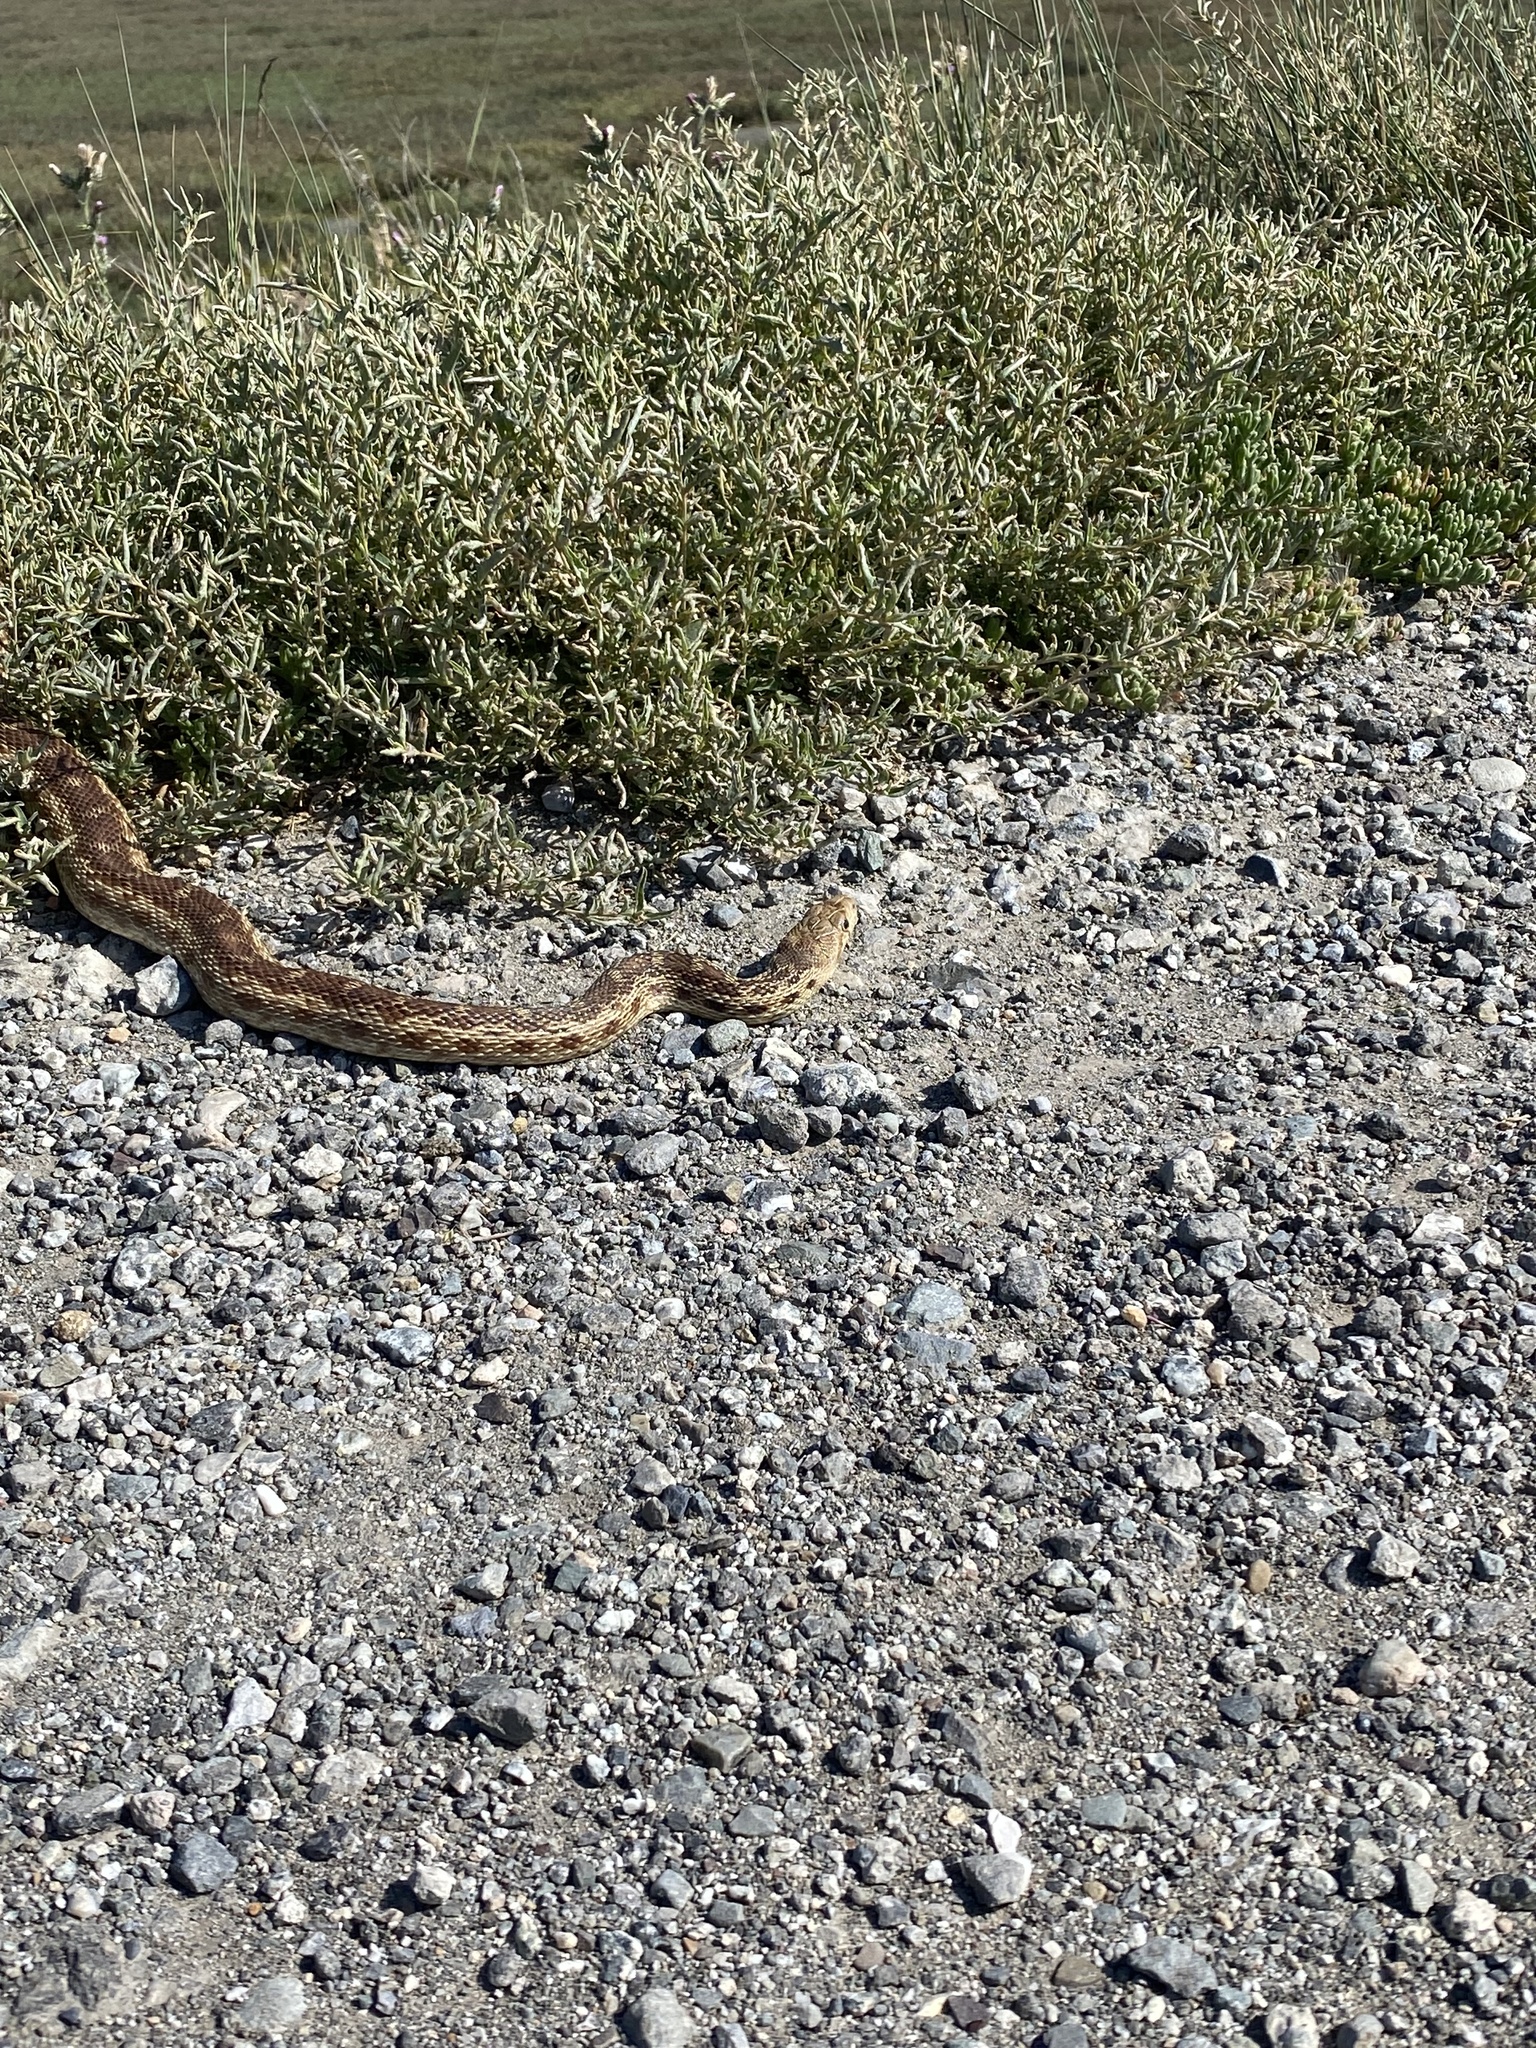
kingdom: Animalia
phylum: Chordata
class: Squamata
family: Colubridae
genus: Pituophis
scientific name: Pituophis catenifer
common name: Gopher snake
